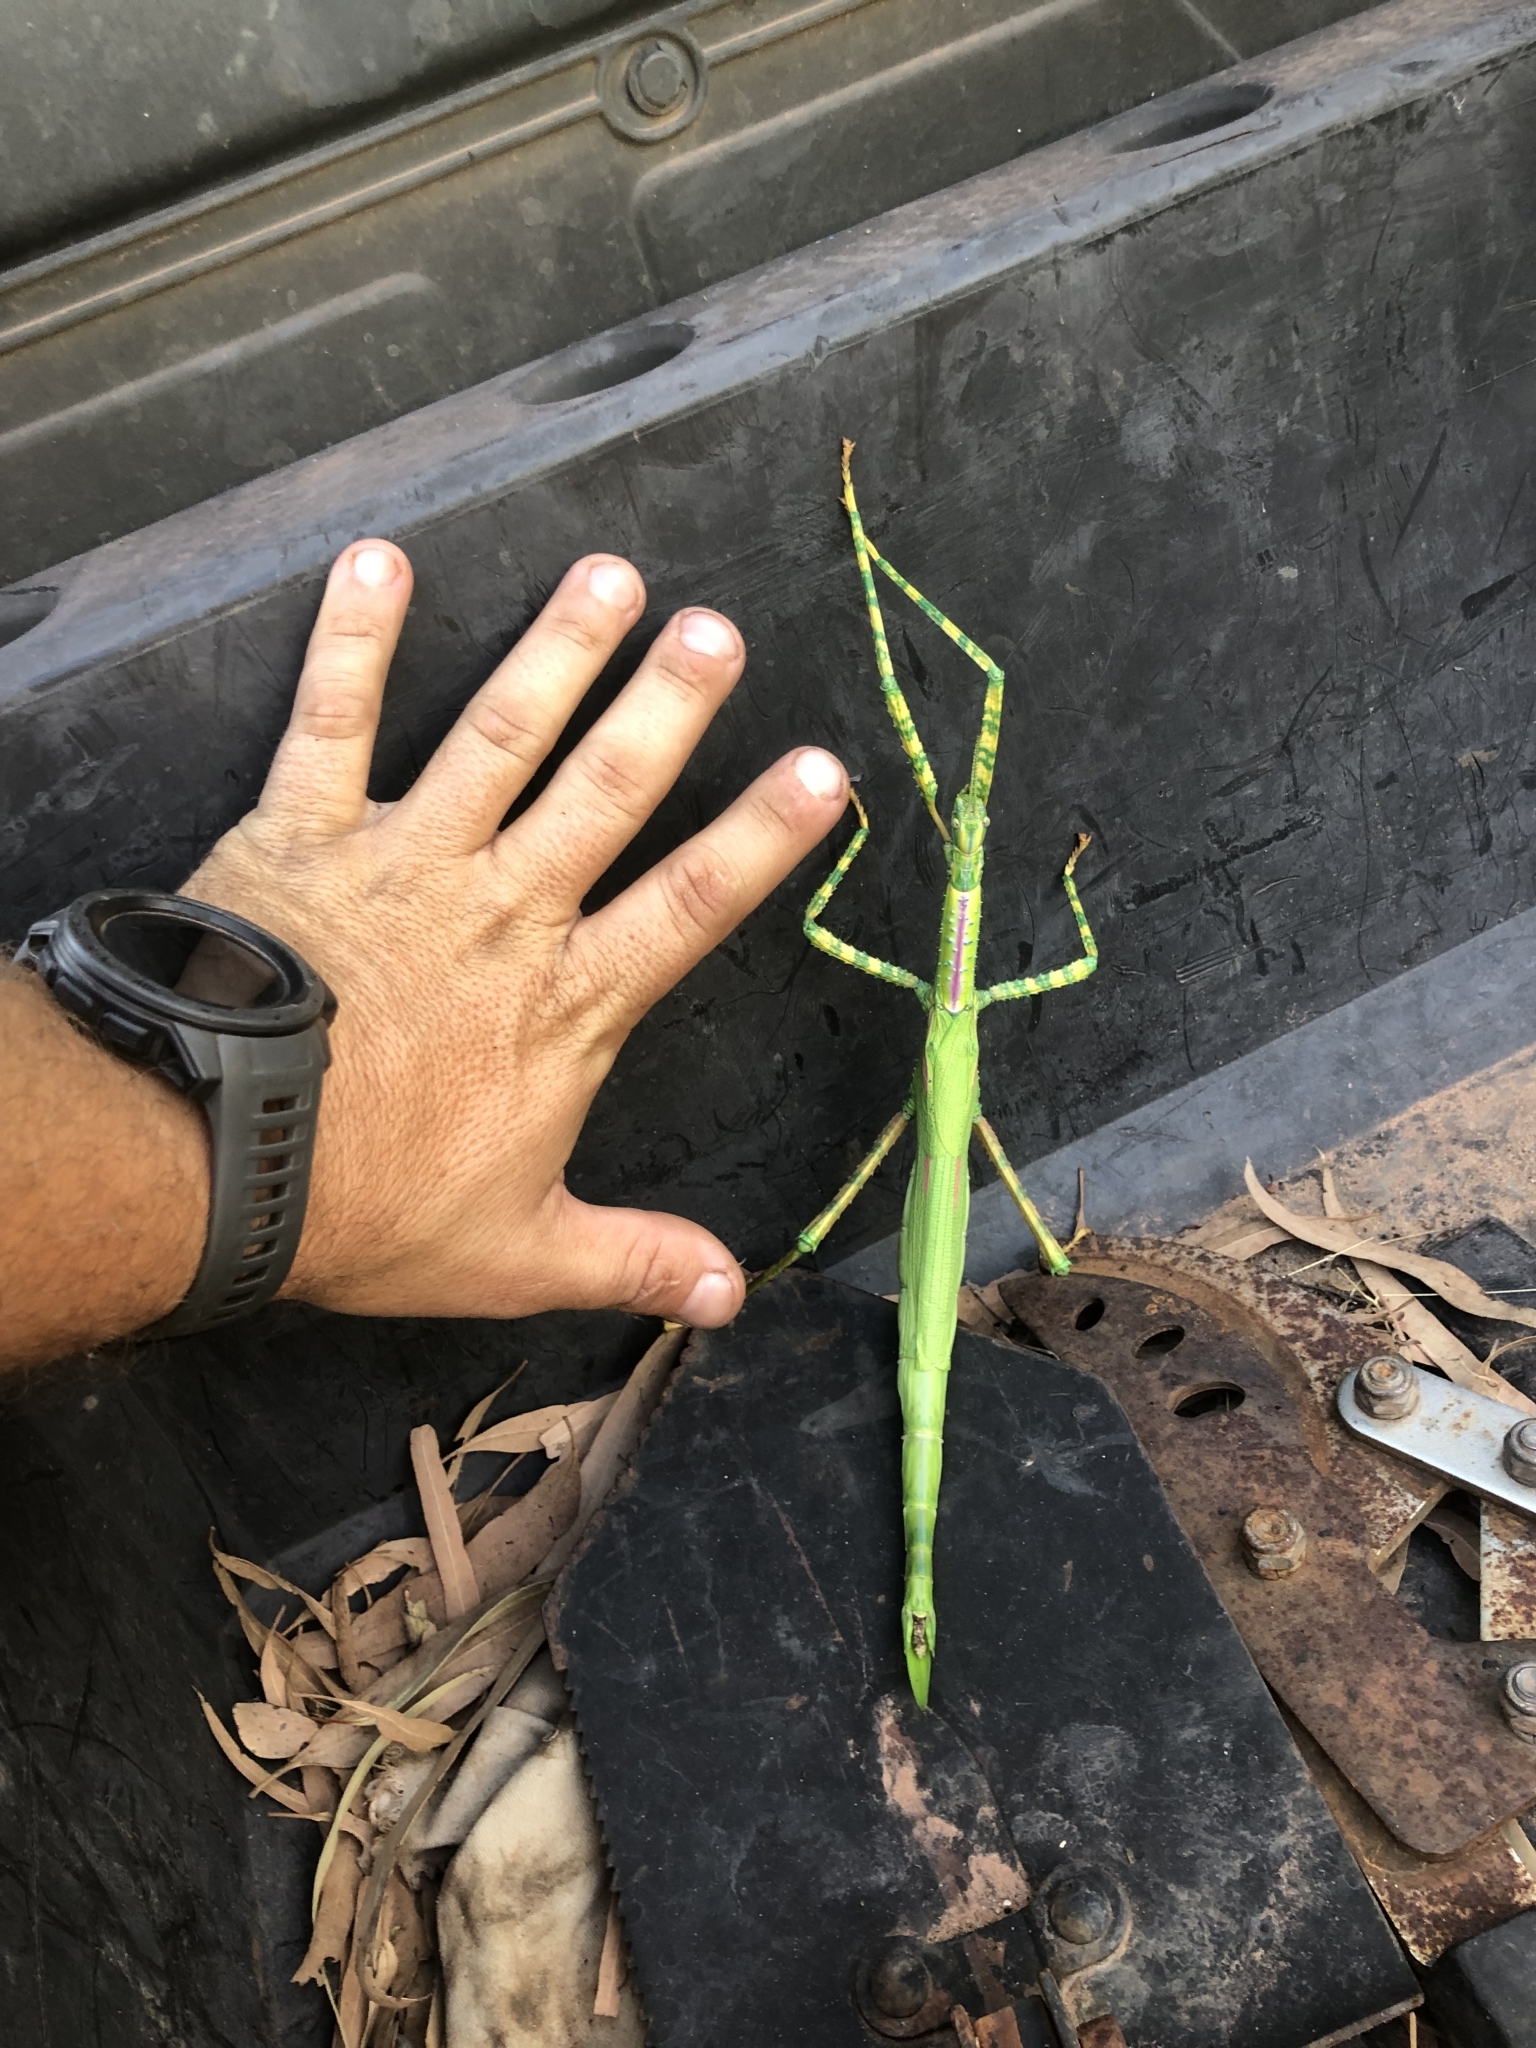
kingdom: Animalia
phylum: Arthropoda
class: Insecta
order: Phasmida
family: Phasmatidae
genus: Eurycnema
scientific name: Eurycnema osiris
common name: Darwin stick insect
